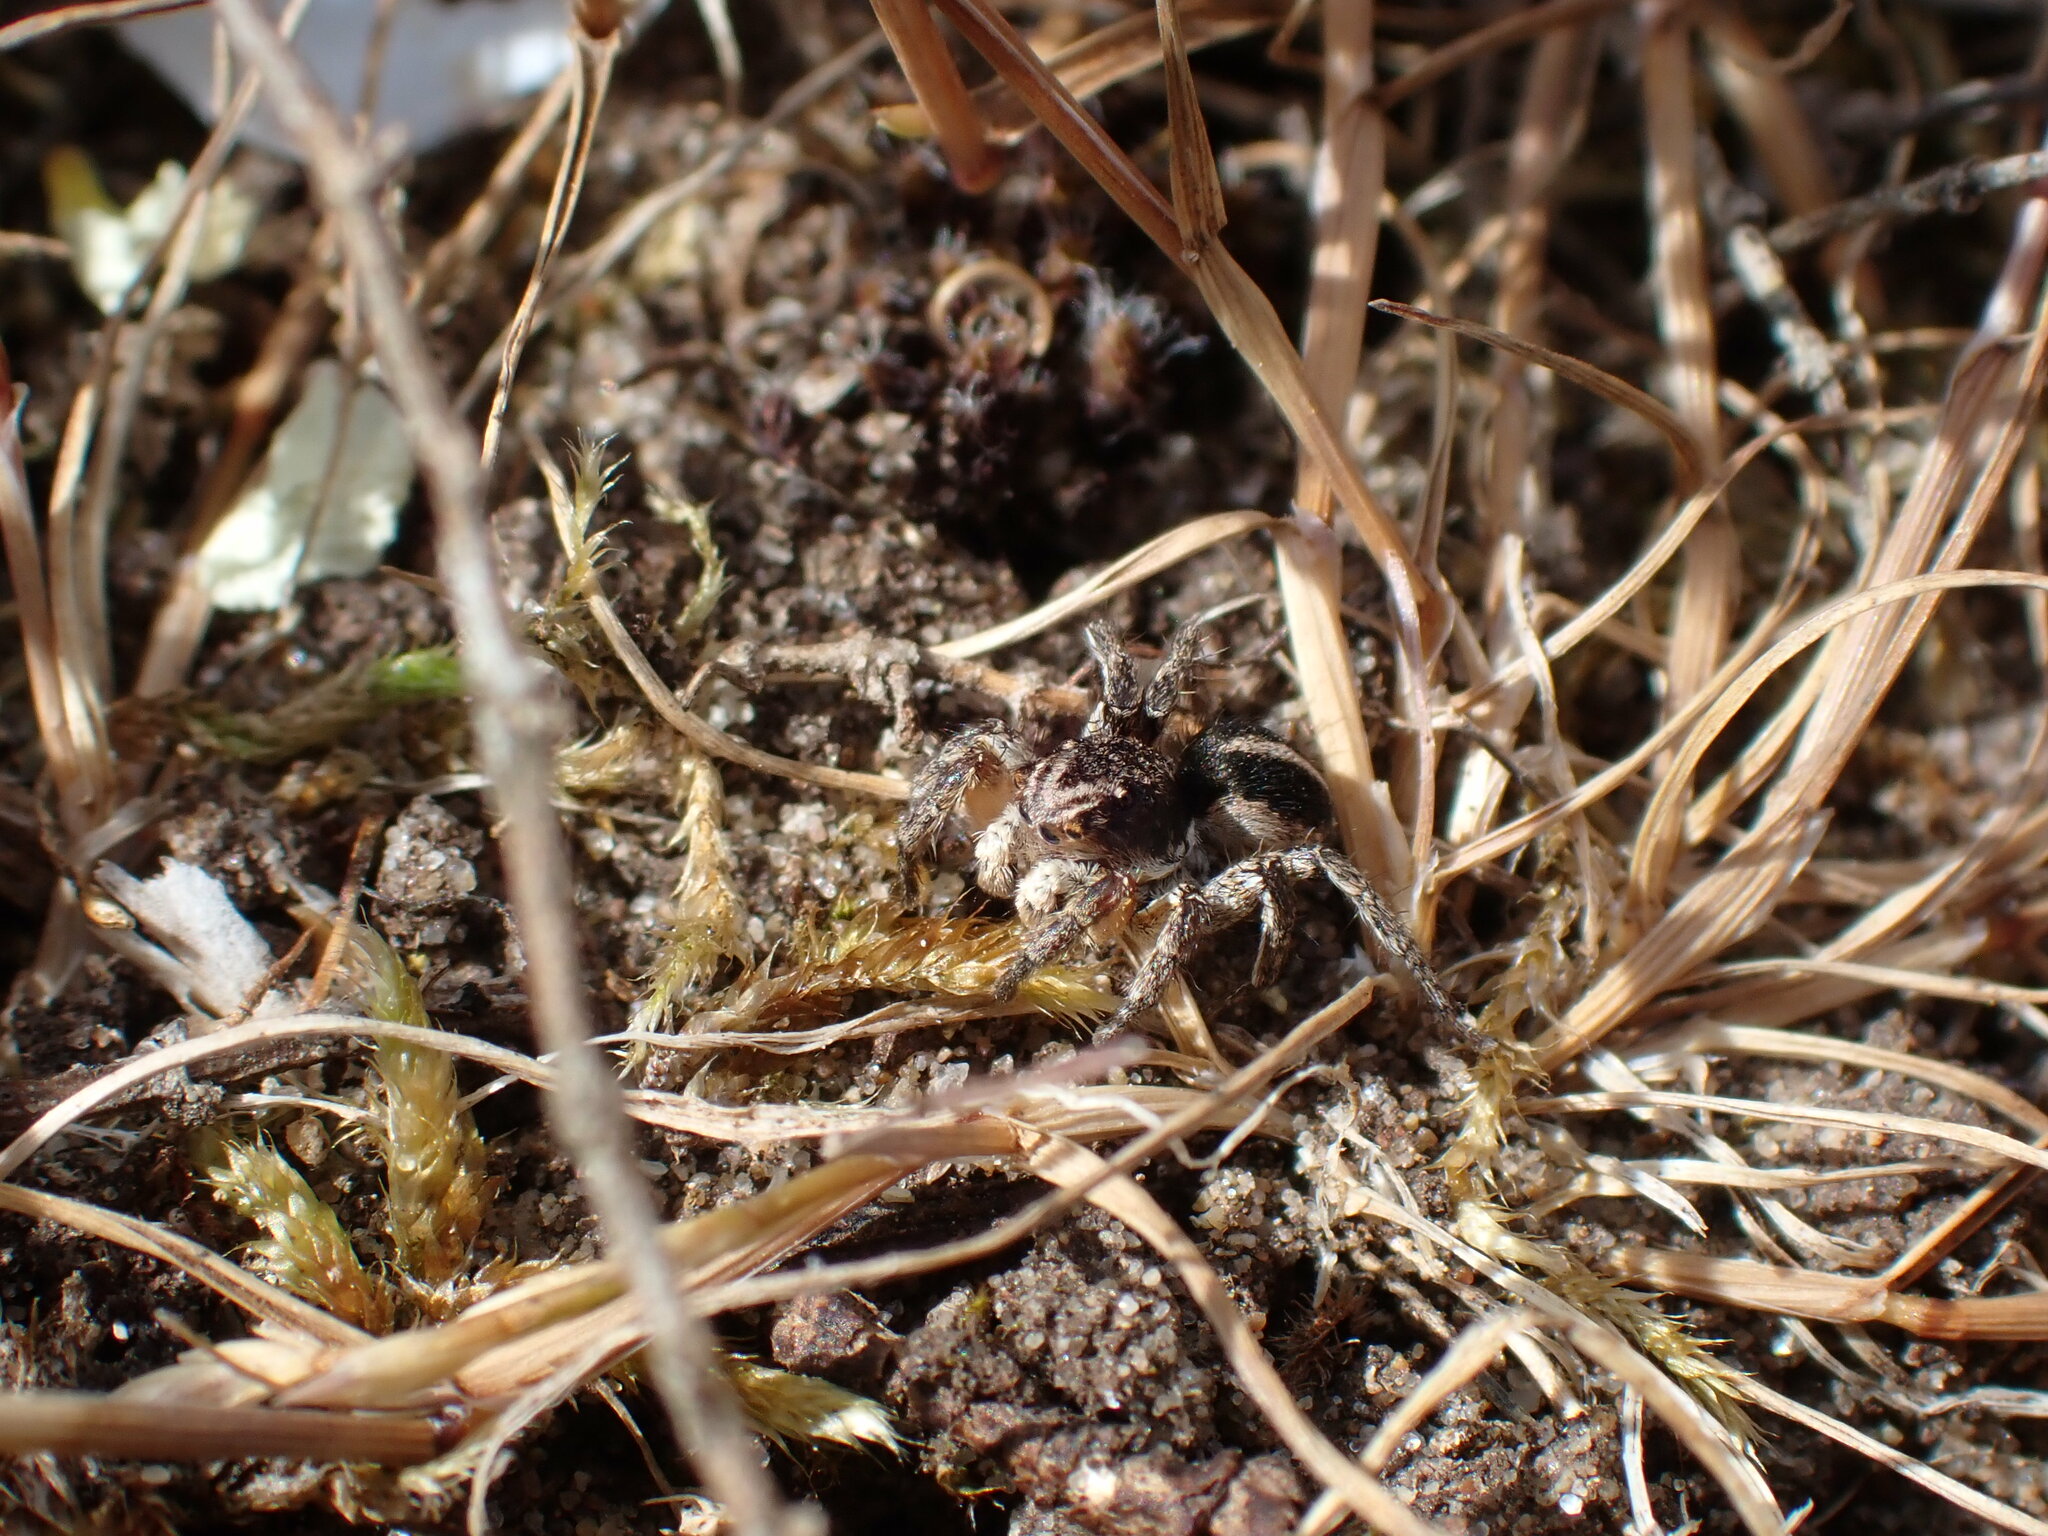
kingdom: Animalia
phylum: Arthropoda
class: Arachnida
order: Araneae
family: Salticidae
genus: Aelurillus
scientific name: Aelurillus v-insignitus
